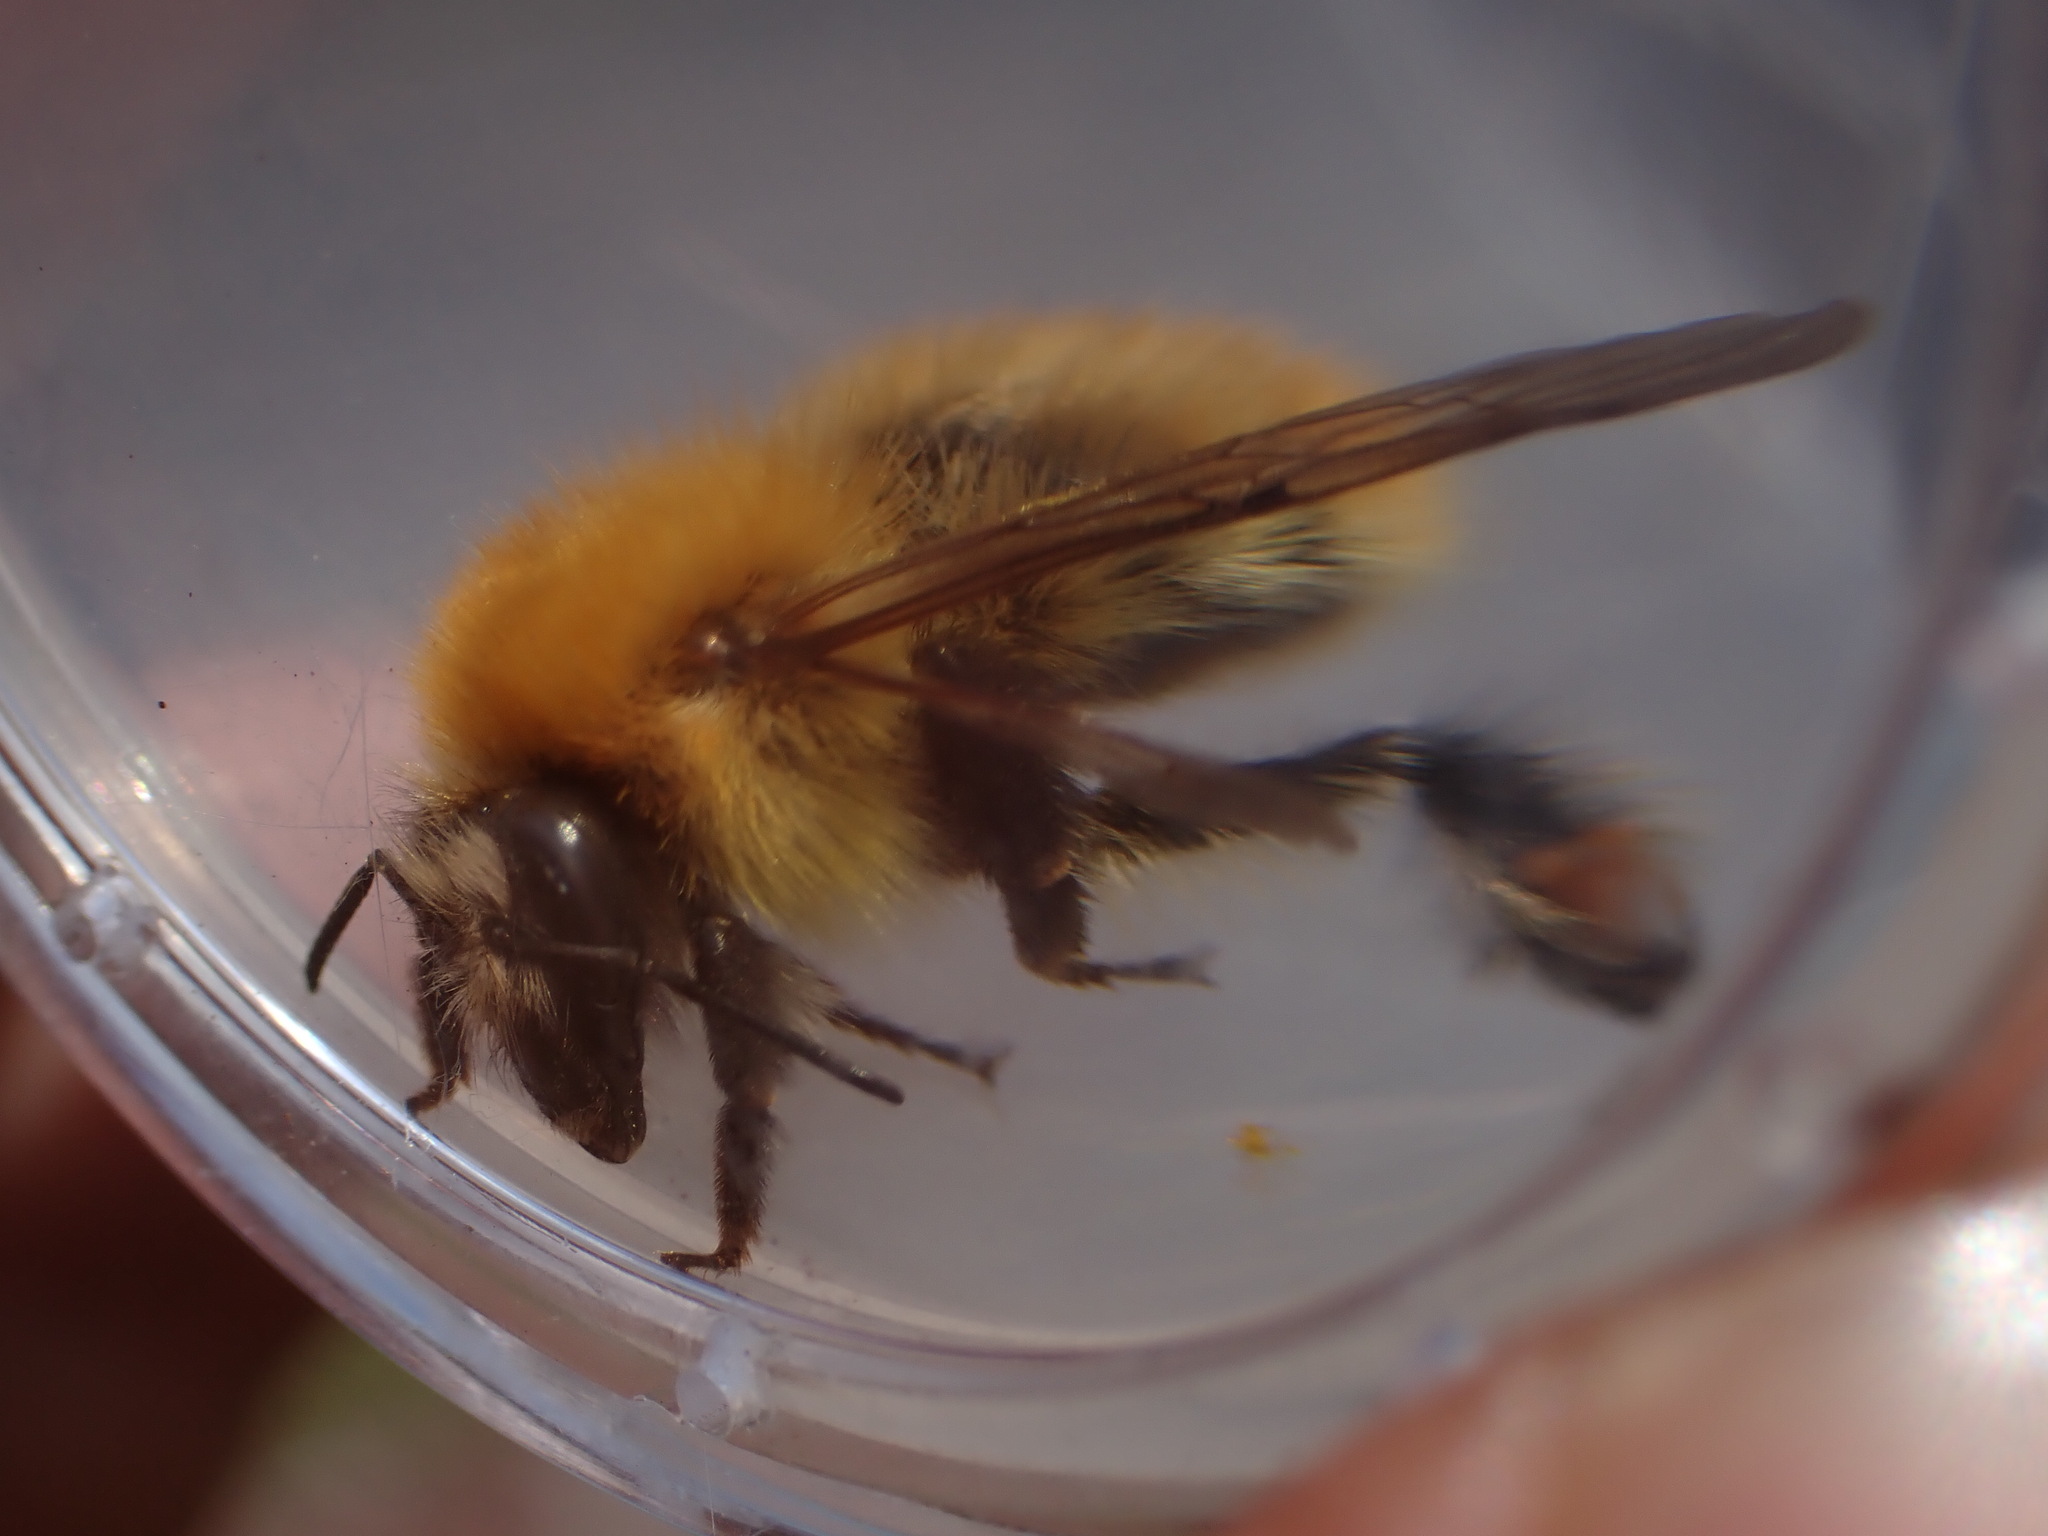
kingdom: Animalia
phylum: Arthropoda
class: Insecta
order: Hymenoptera
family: Apidae
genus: Bombus
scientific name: Bombus pascuorum
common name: Common carder bee
